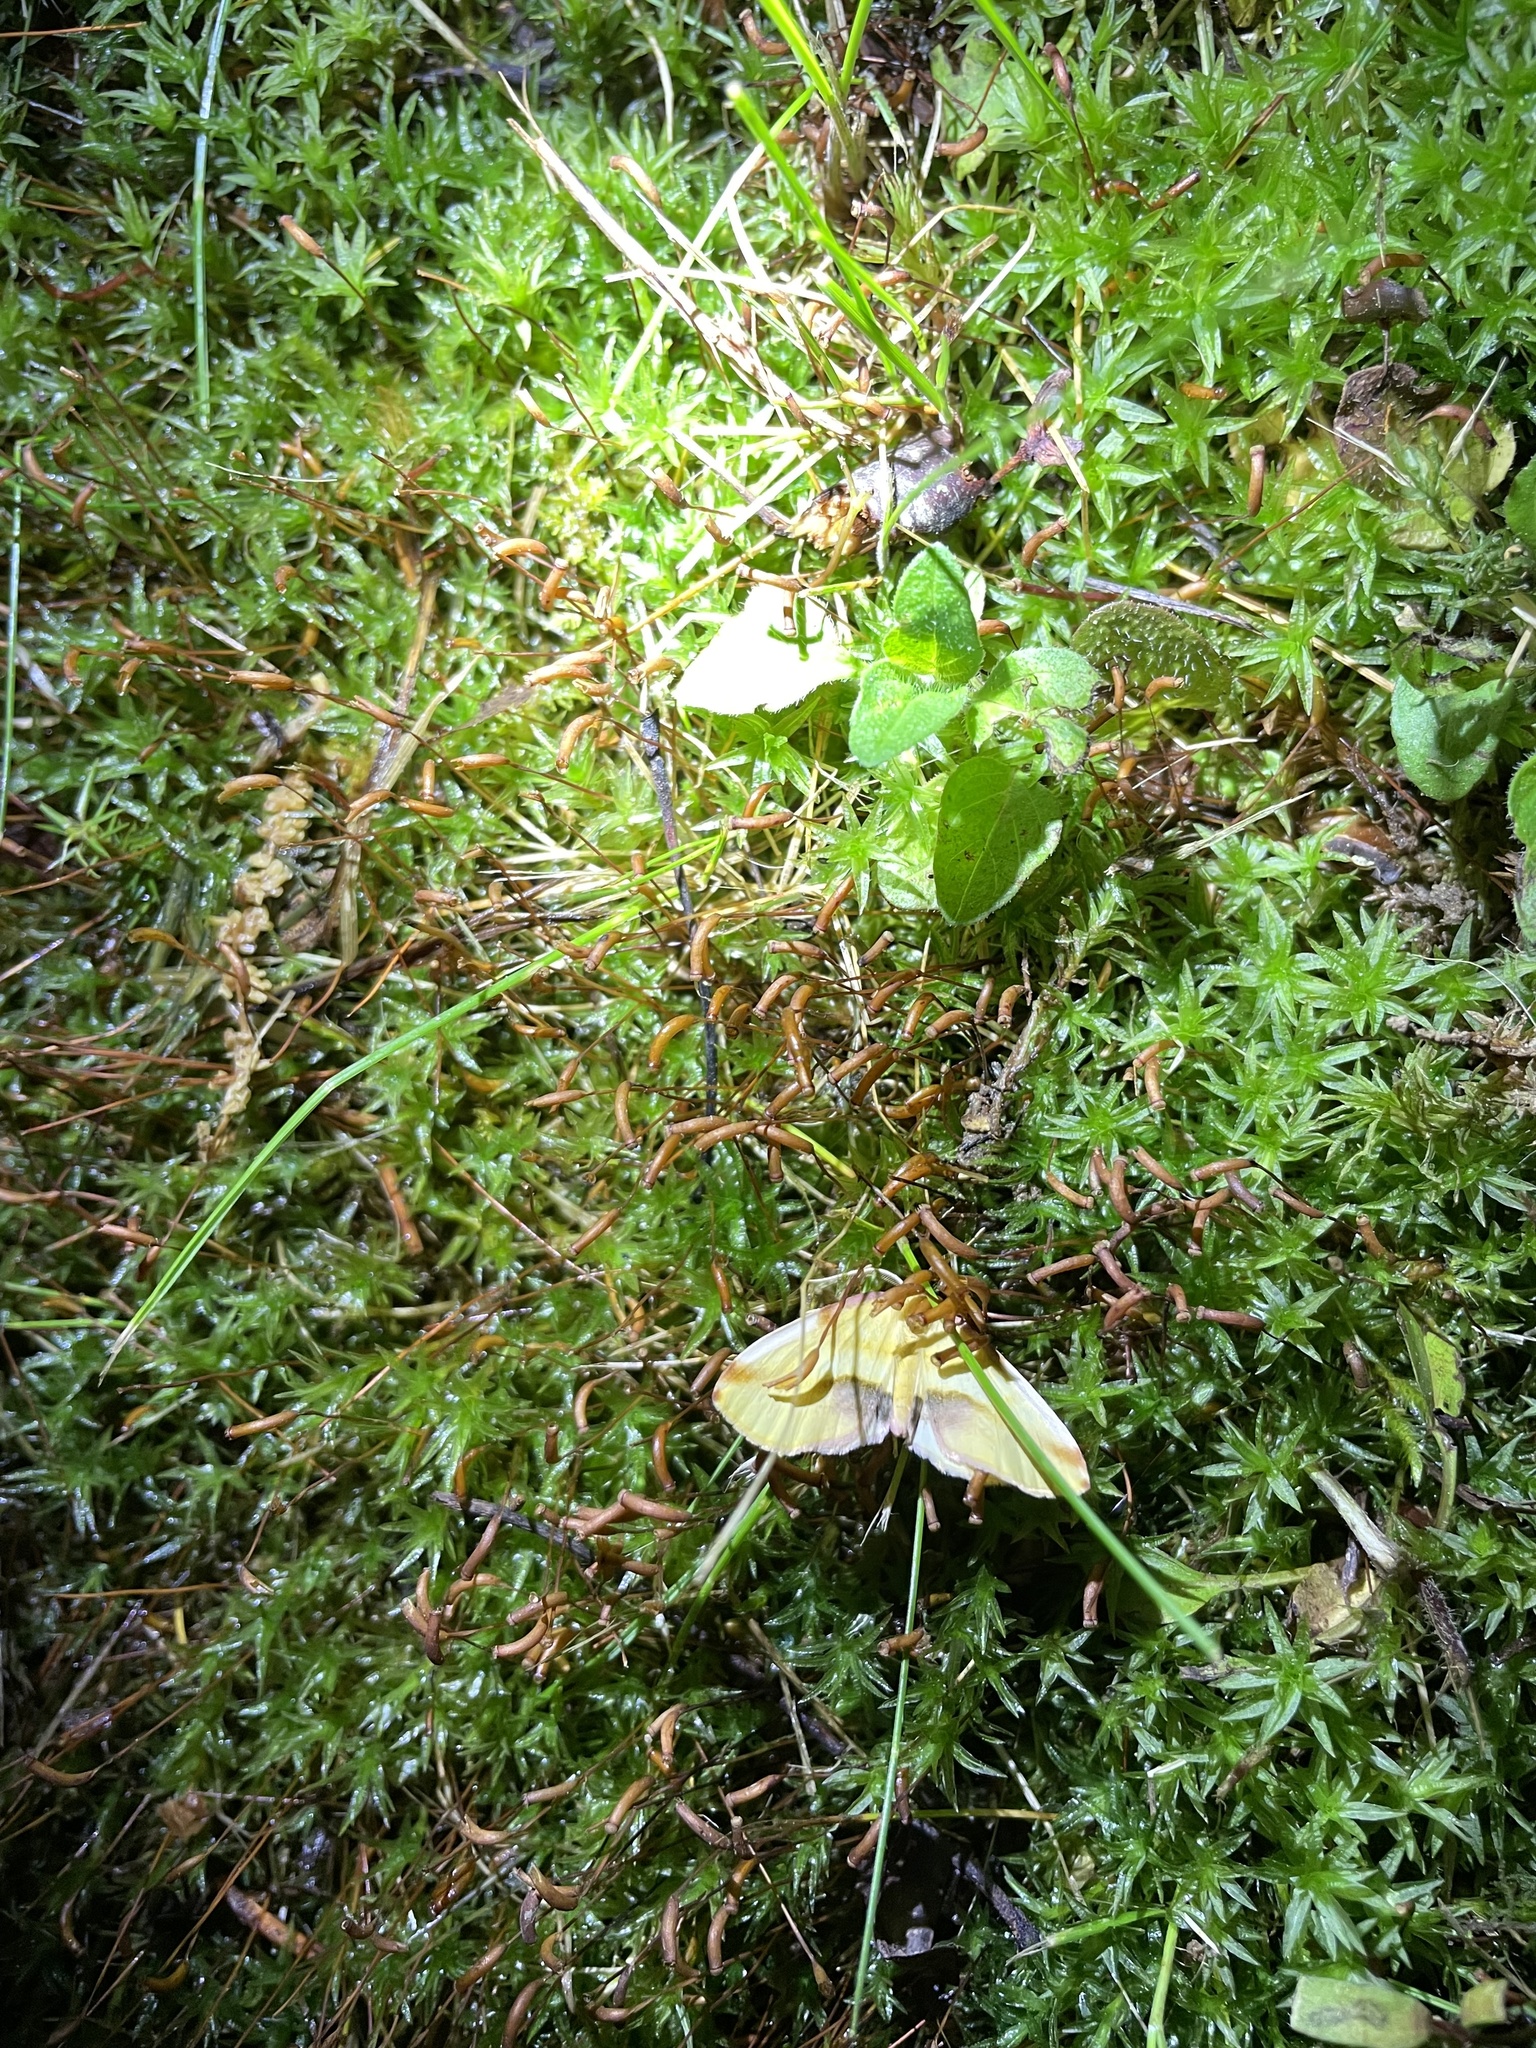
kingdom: Animalia
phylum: Arthropoda
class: Insecta
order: Lepidoptera
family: Geometridae
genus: Plagodis
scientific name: Plagodis serinaria
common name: Lemon plagodis
